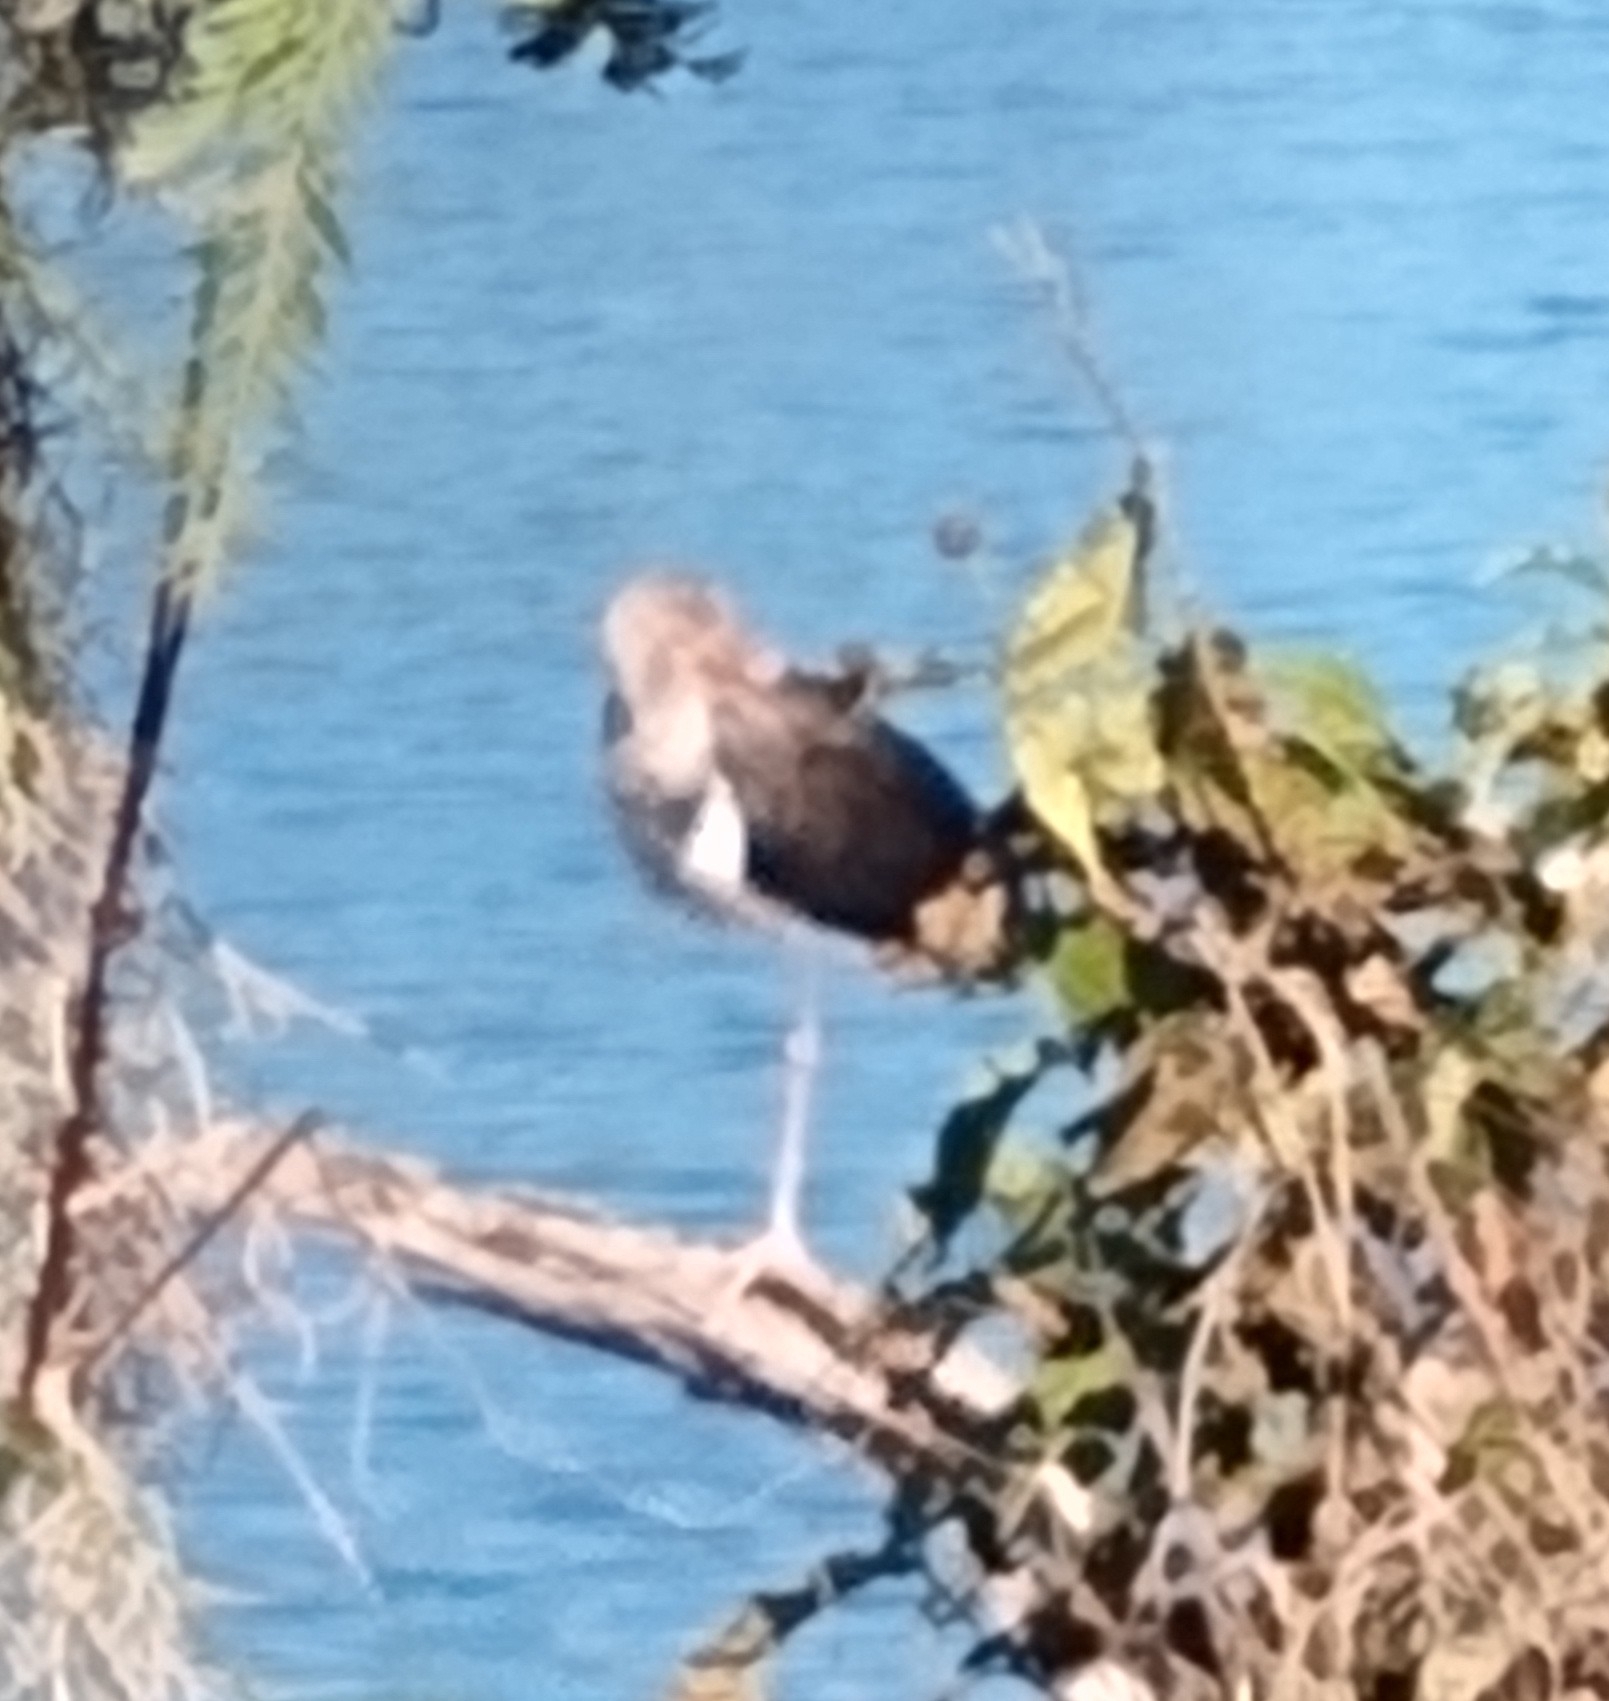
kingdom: Animalia
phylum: Chordata
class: Aves
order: Pelecaniformes
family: Threskiornithidae
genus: Eudocimus
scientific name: Eudocimus albus
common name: White ibis
